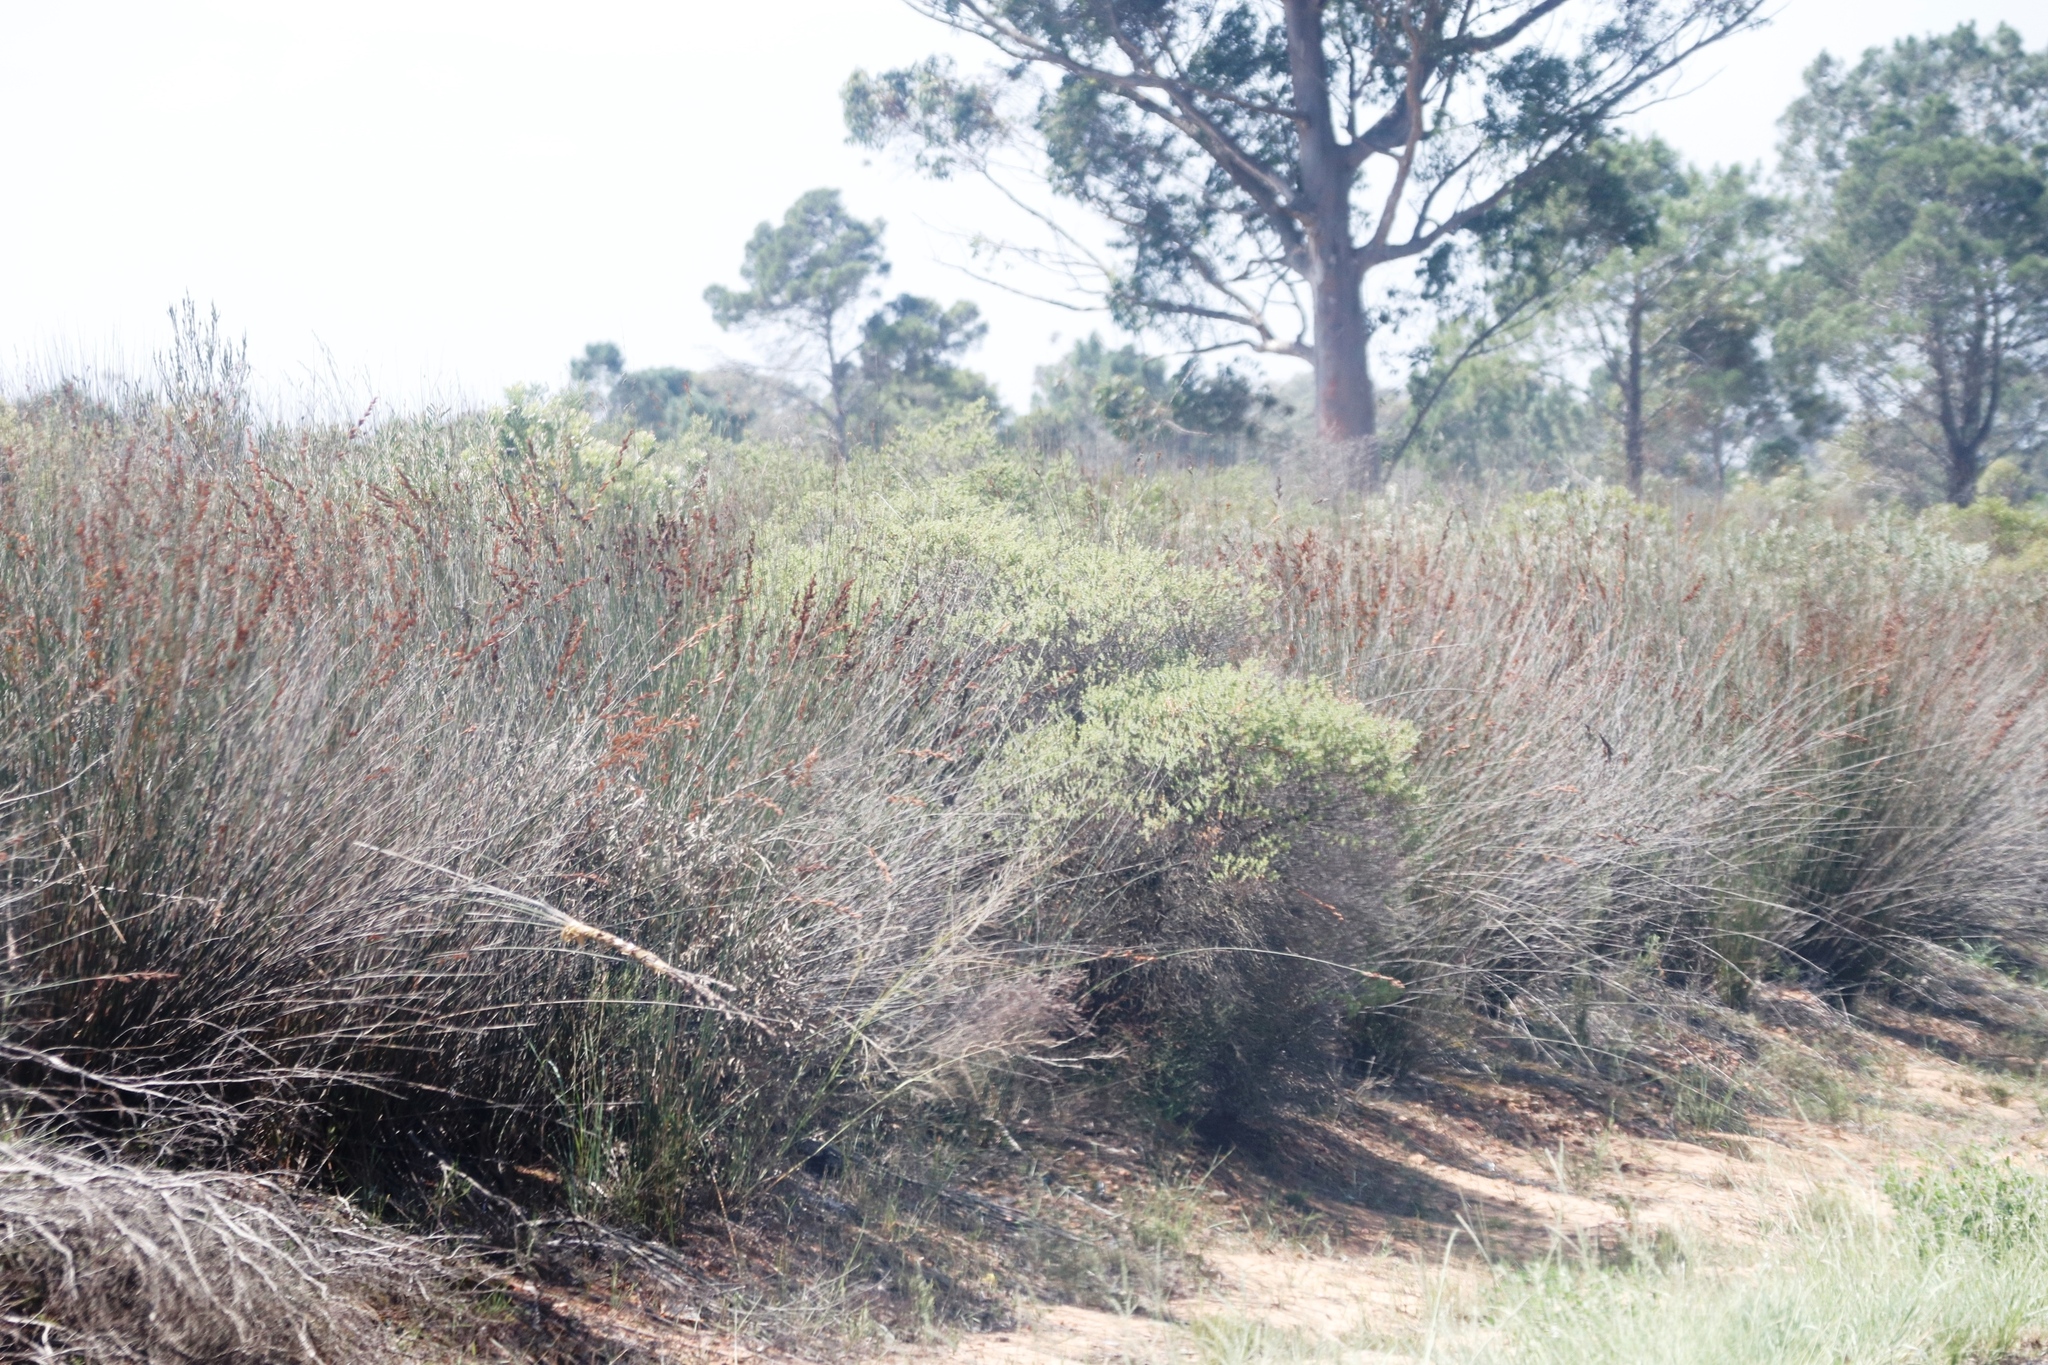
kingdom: Plantae
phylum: Tracheophyta
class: Liliopsida
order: Poales
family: Restionaceae
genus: Thamnochortus
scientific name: Thamnochortus insignis
